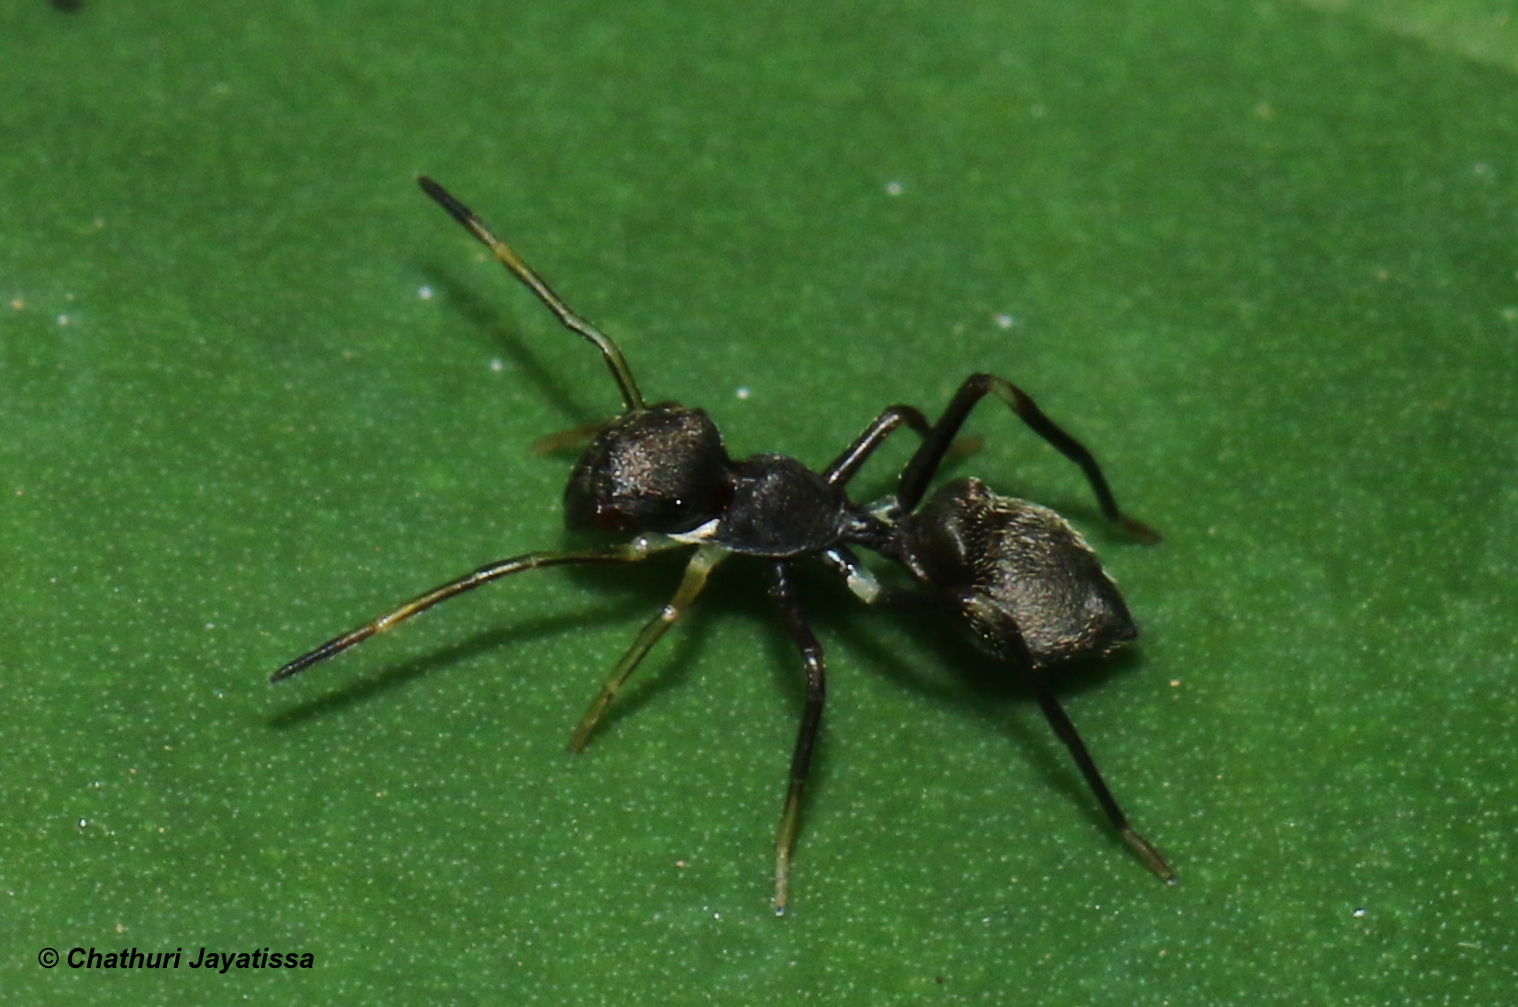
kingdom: Animalia
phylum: Arthropoda
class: Arachnida
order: Araneae
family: Salticidae
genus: Myrmarachne
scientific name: Myrmarachne spissa
